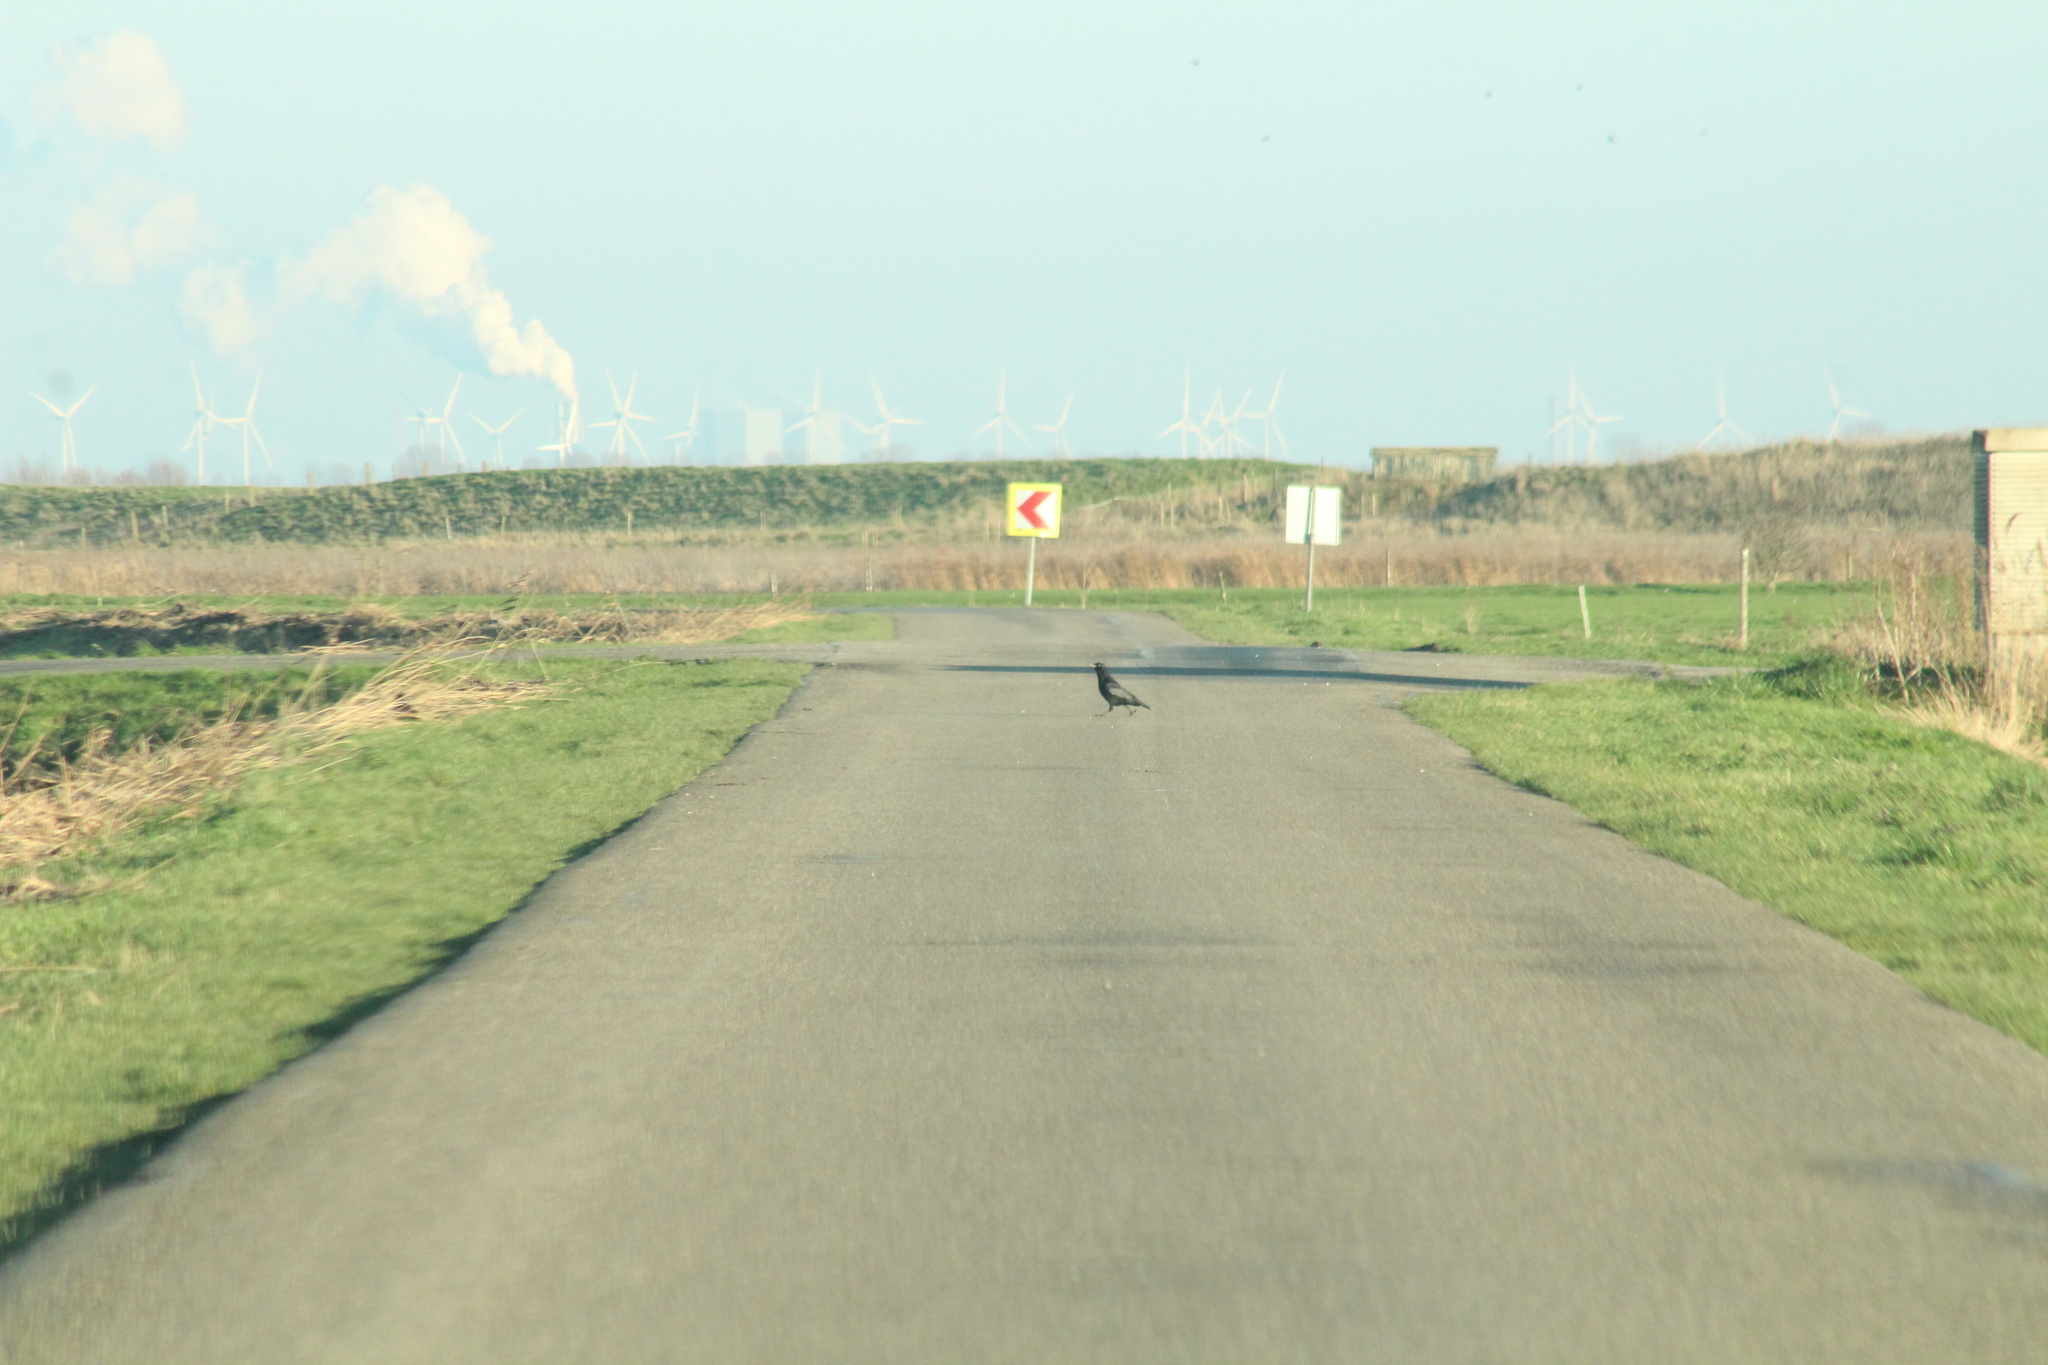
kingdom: Animalia
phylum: Chordata
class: Aves
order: Passeriformes
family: Corvidae
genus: Corvus
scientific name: Corvus corone
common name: Carrion crow
